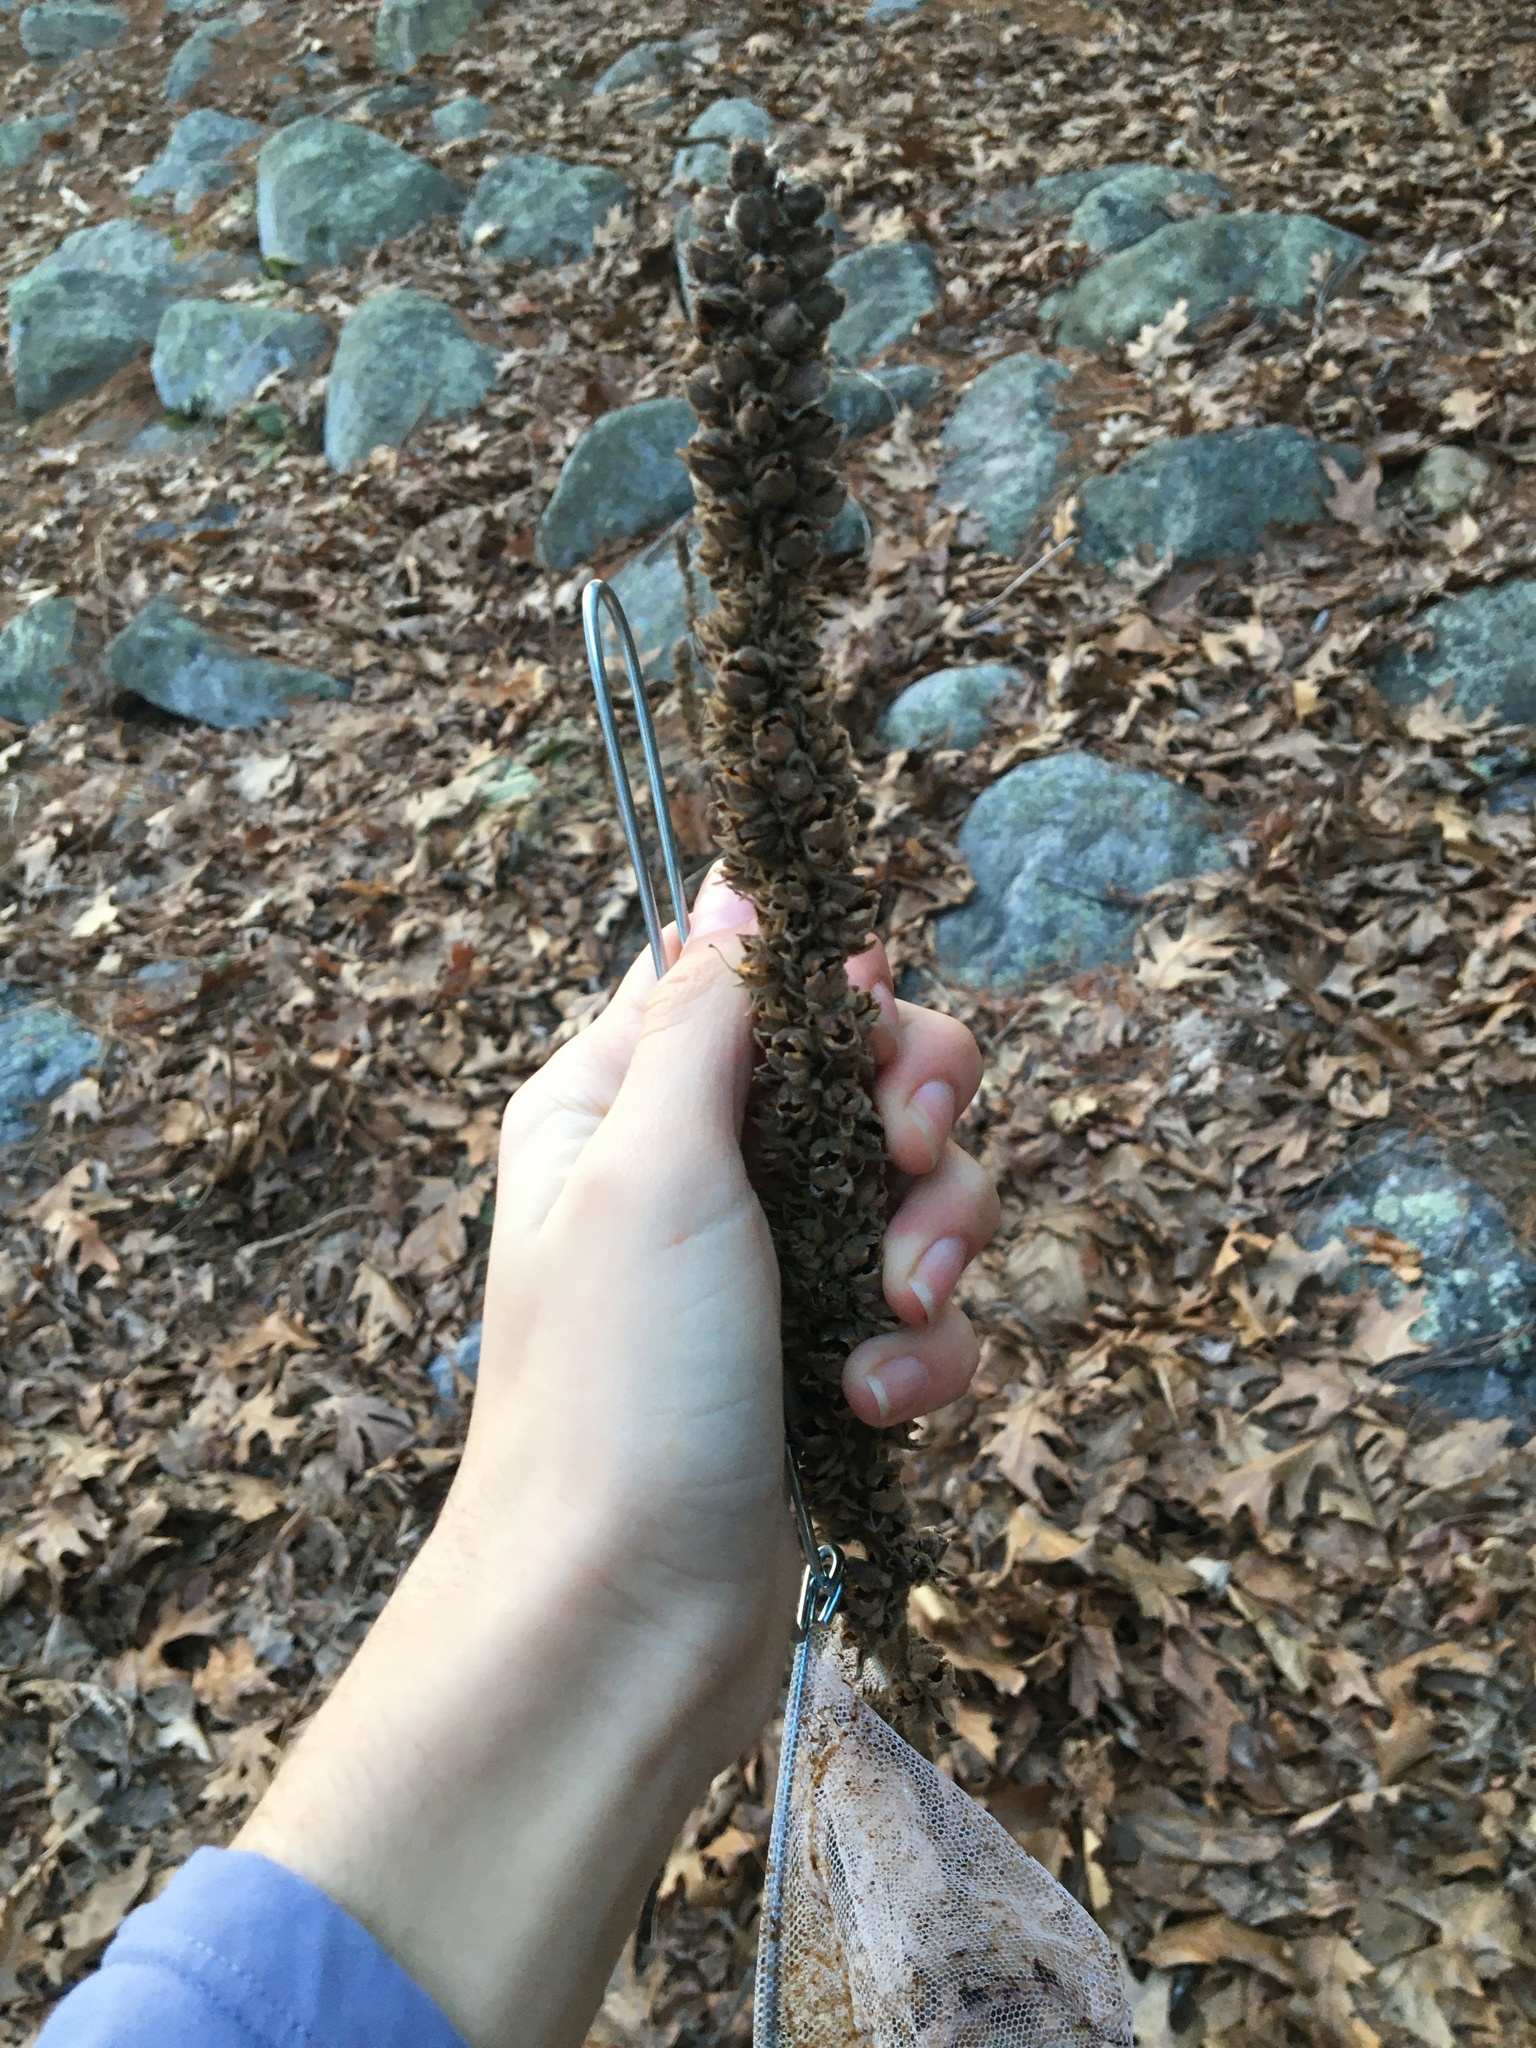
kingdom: Plantae
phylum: Tracheophyta
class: Magnoliopsida
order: Lamiales
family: Scrophulariaceae
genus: Verbascum
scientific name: Verbascum thapsus
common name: Common mullein
